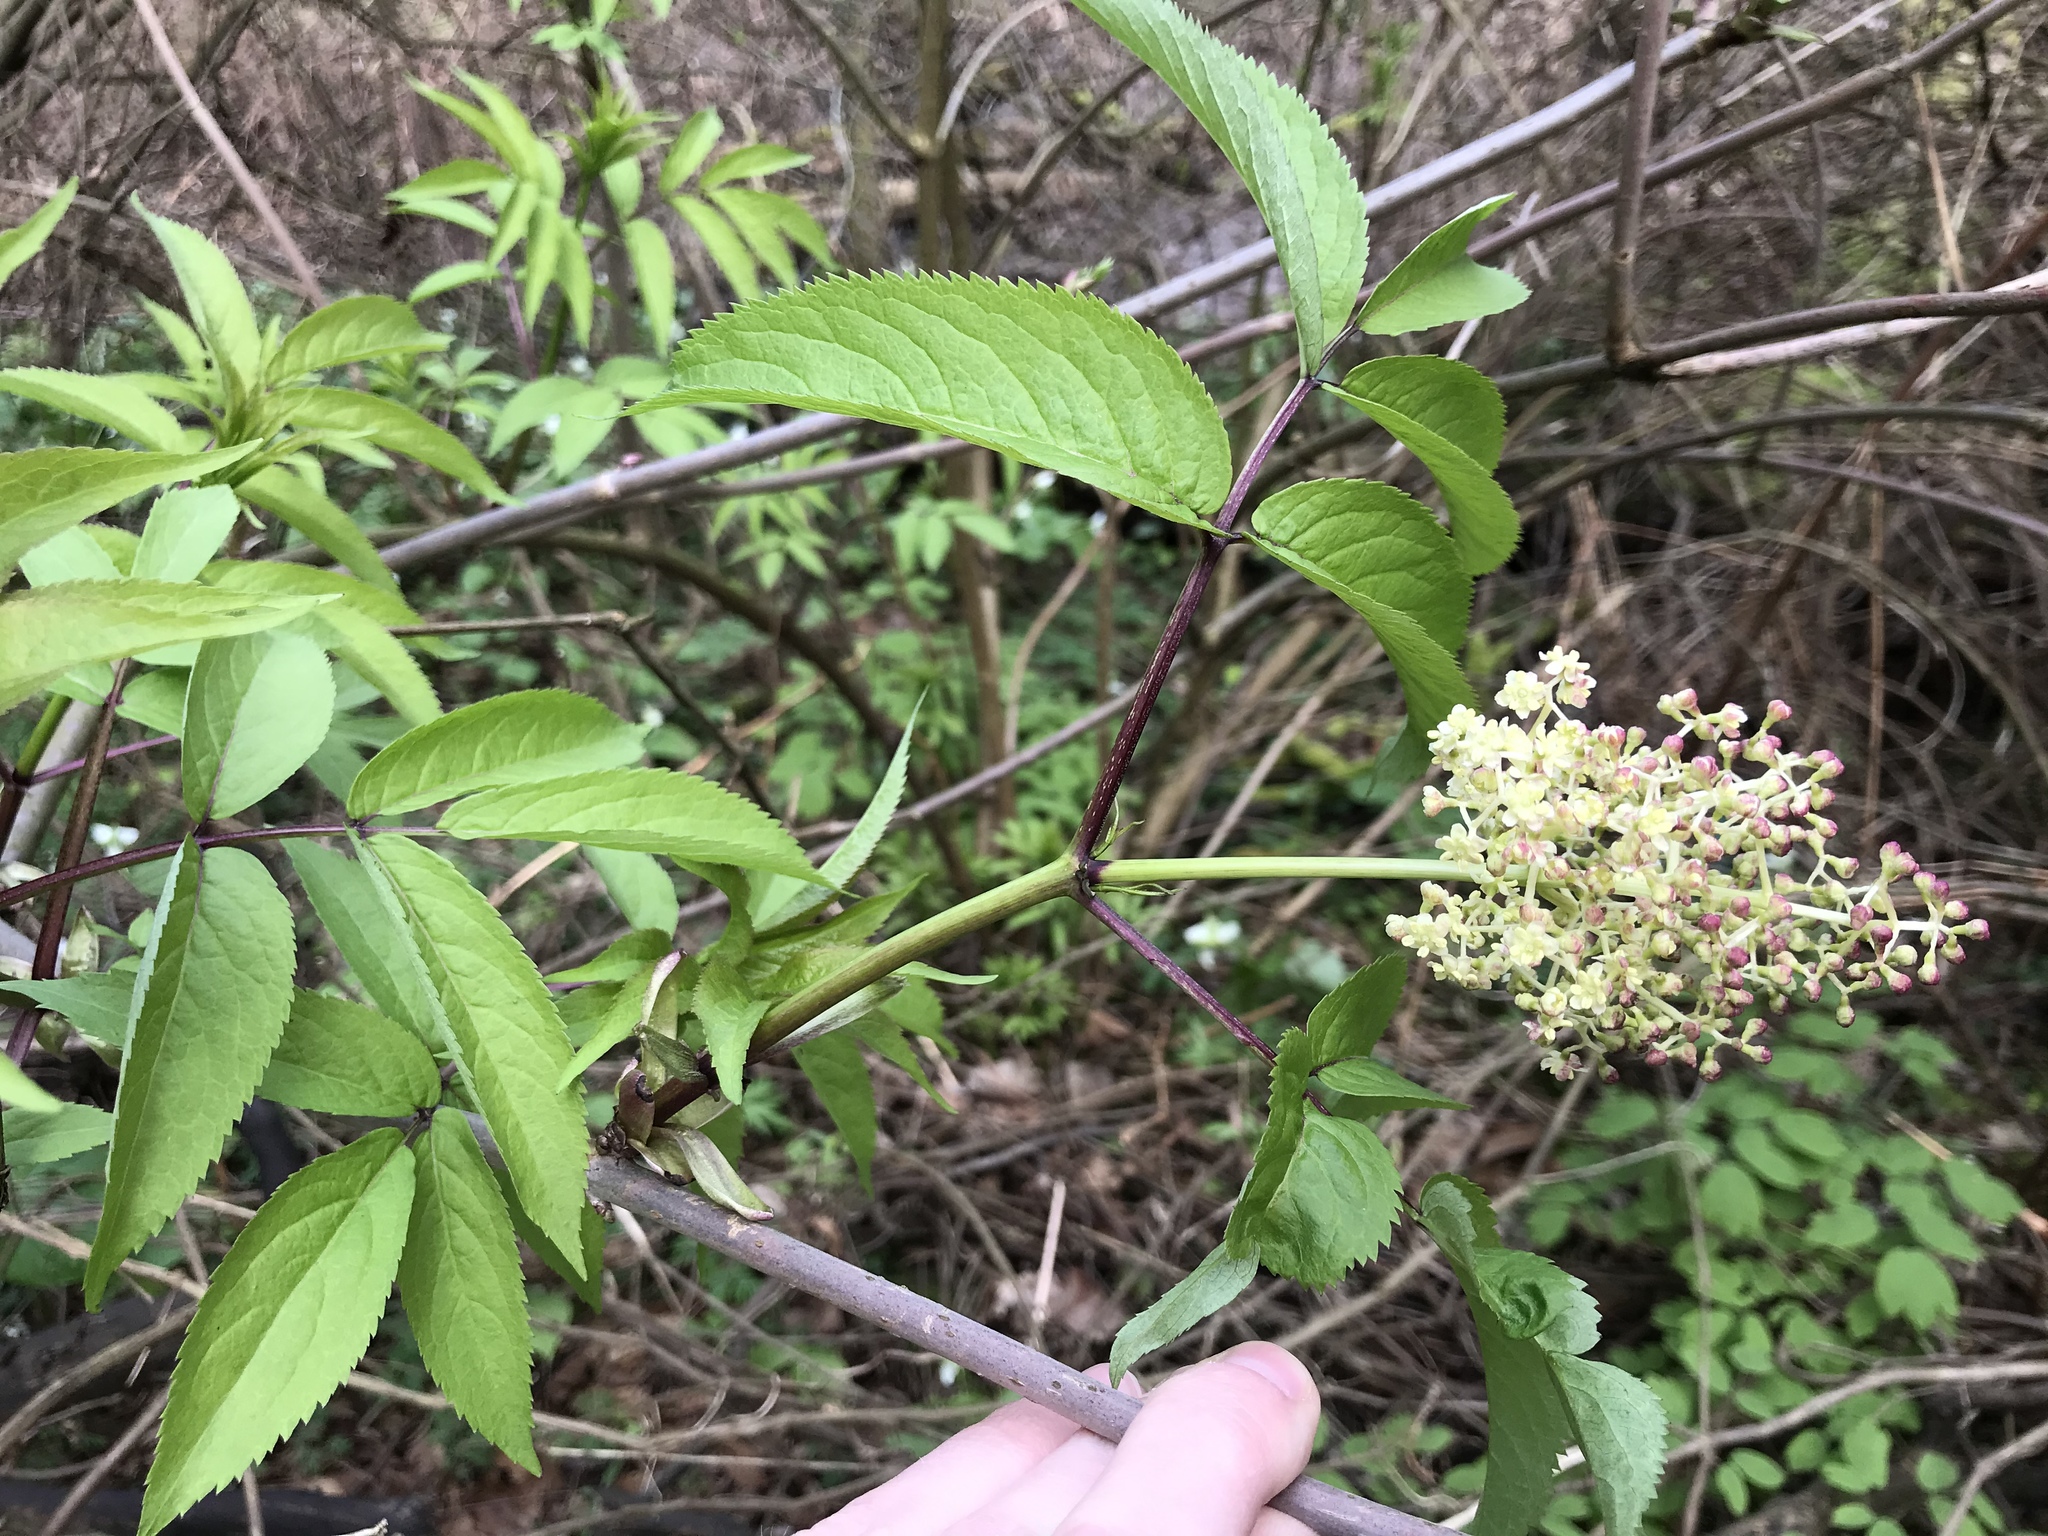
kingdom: Plantae
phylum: Tracheophyta
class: Magnoliopsida
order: Dipsacales
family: Viburnaceae
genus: Sambucus
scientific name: Sambucus racemosa
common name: Red-berried elder
